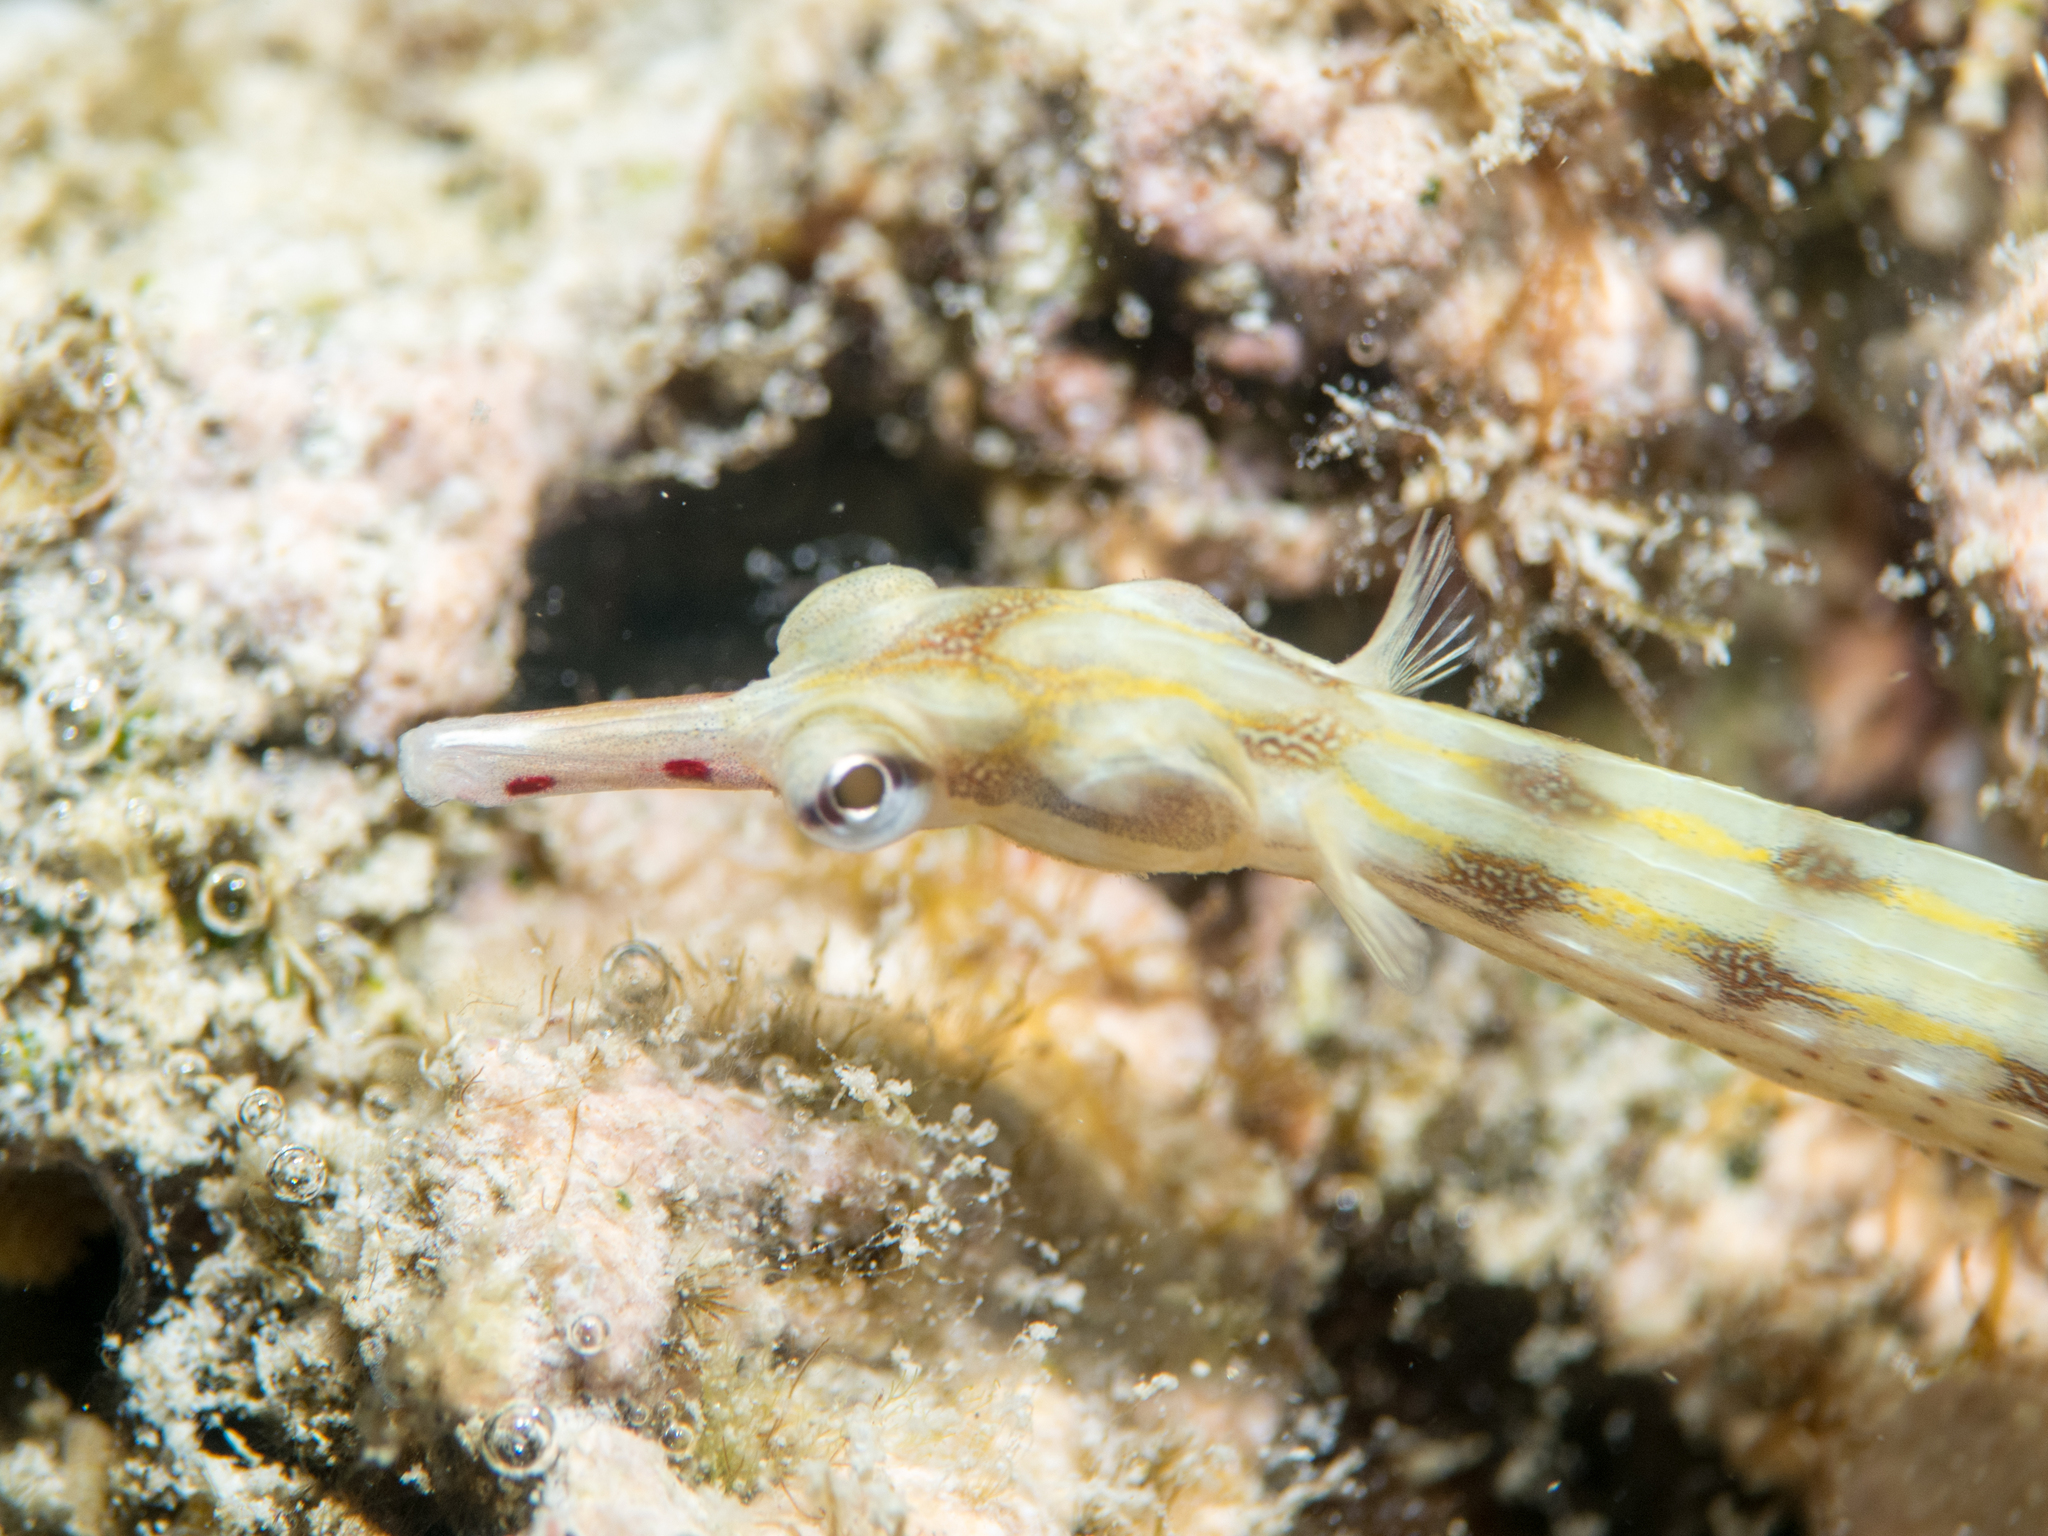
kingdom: Animalia
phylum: Chordata
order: Syngnathiformes
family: Syngnathidae
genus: Corythoichthys
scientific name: Corythoichthys flavofasciatus
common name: Banded pipefish
